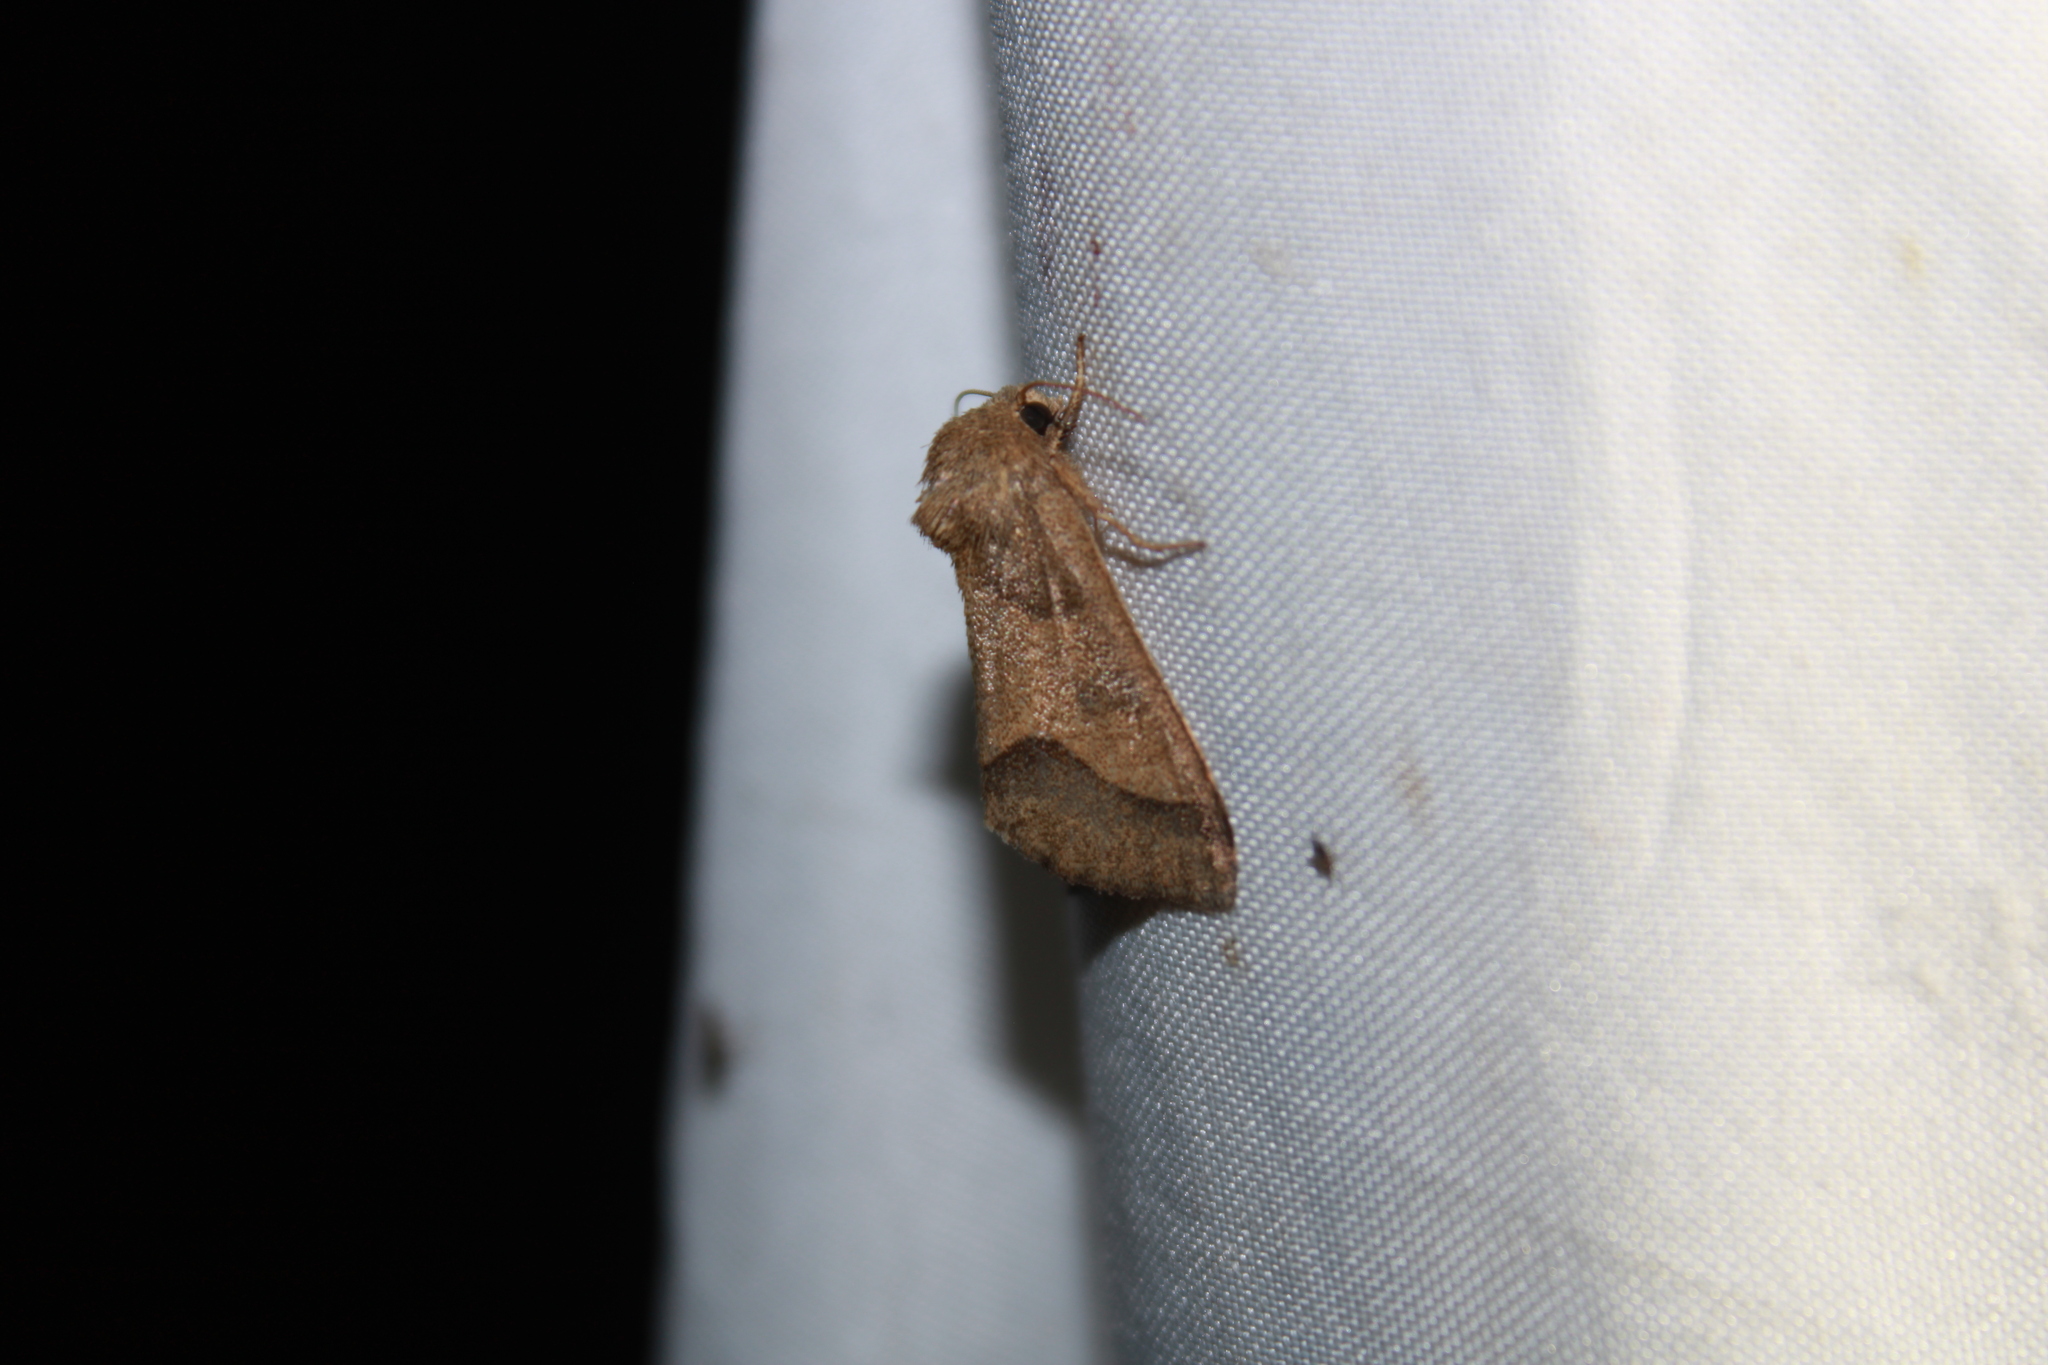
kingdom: Animalia
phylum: Arthropoda
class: Insecta
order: Lepidoptera
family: Noctuidae
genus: Schinia
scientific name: Schinia gracilenta
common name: Slender flower moth
